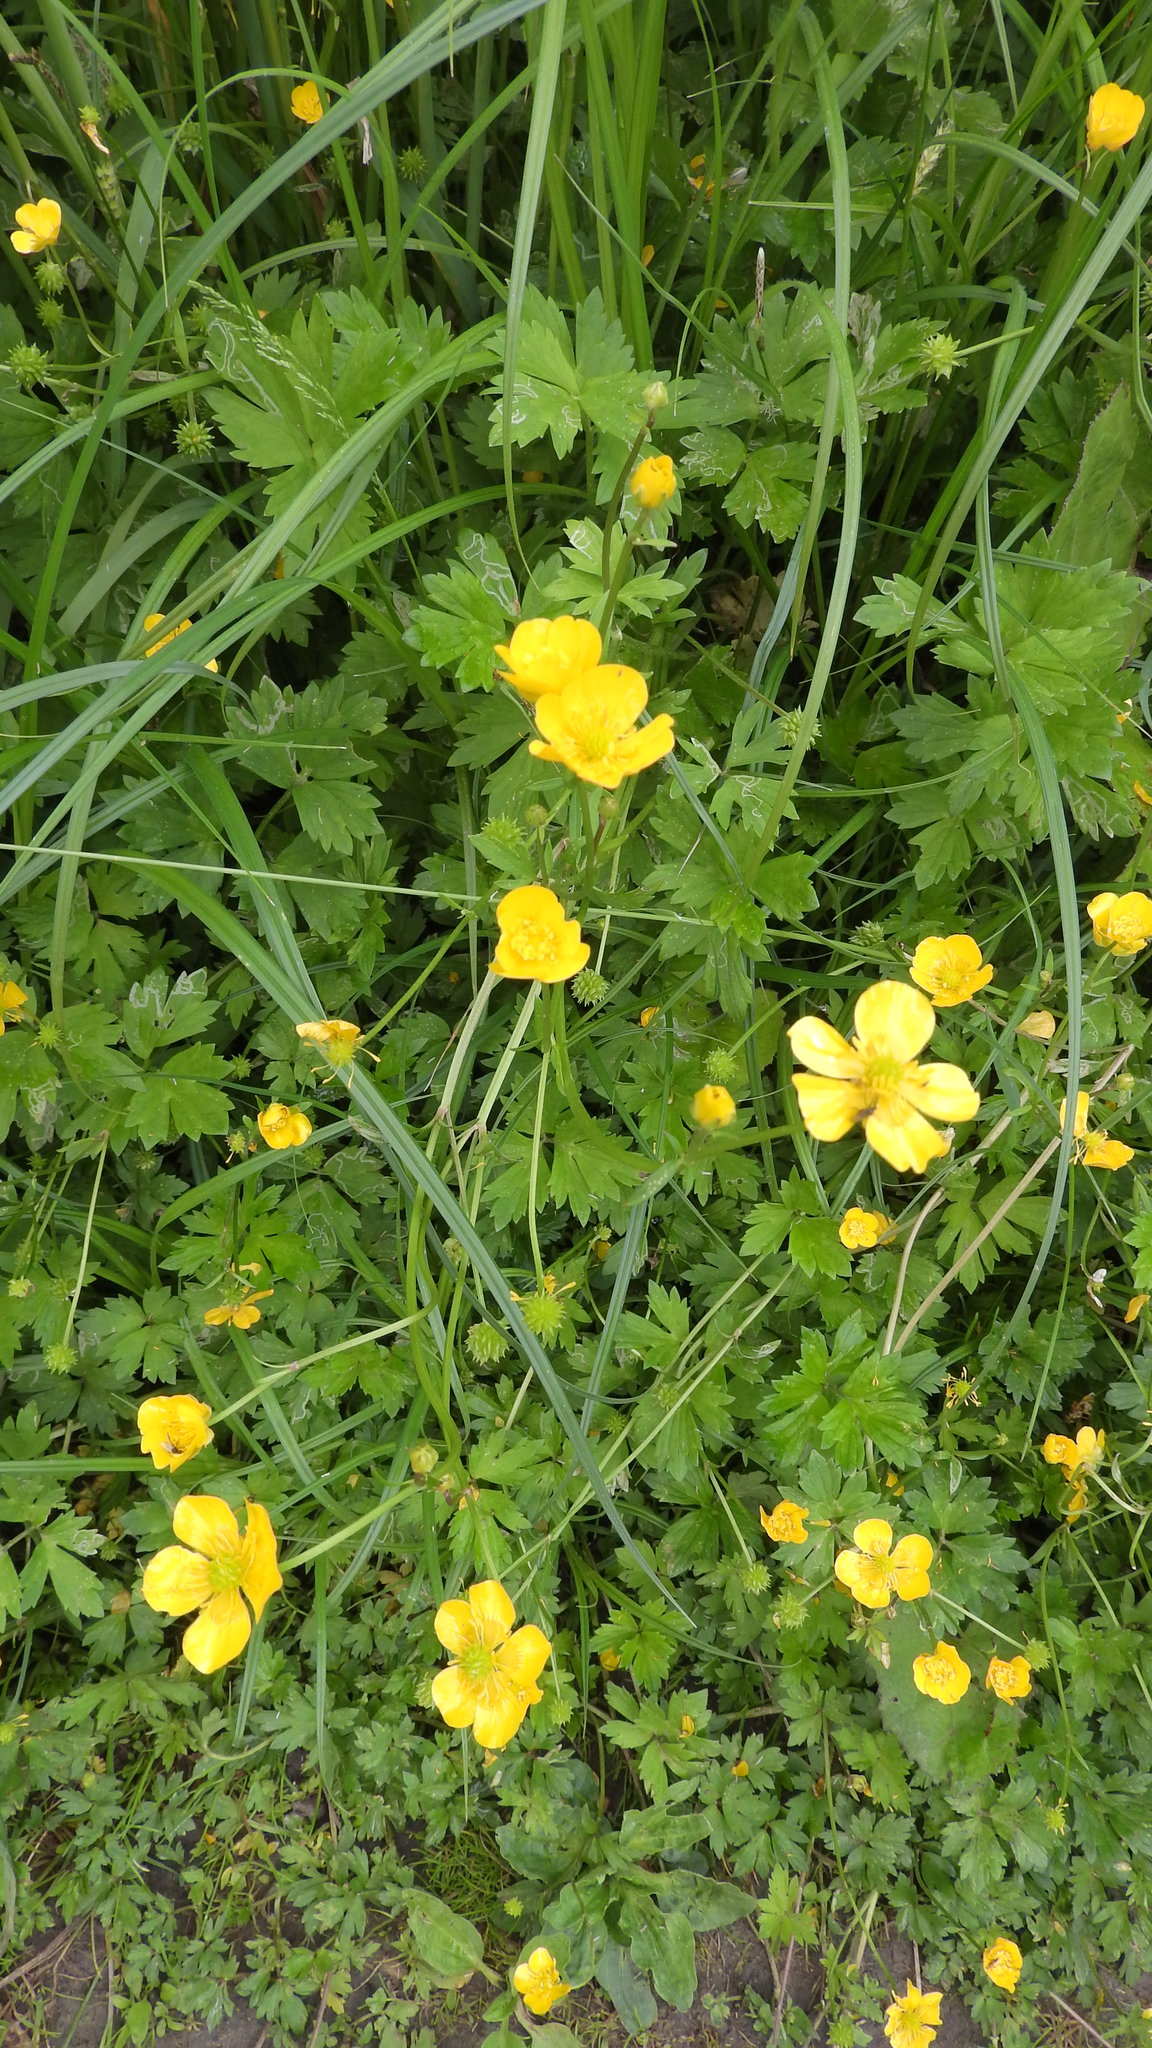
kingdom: Plantae
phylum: Tracheophyta
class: Magnoliopsida
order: Ranunculales
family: Ranunculaceae
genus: Ranunculus
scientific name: Ranunculus repens
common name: Creeping buttercup
